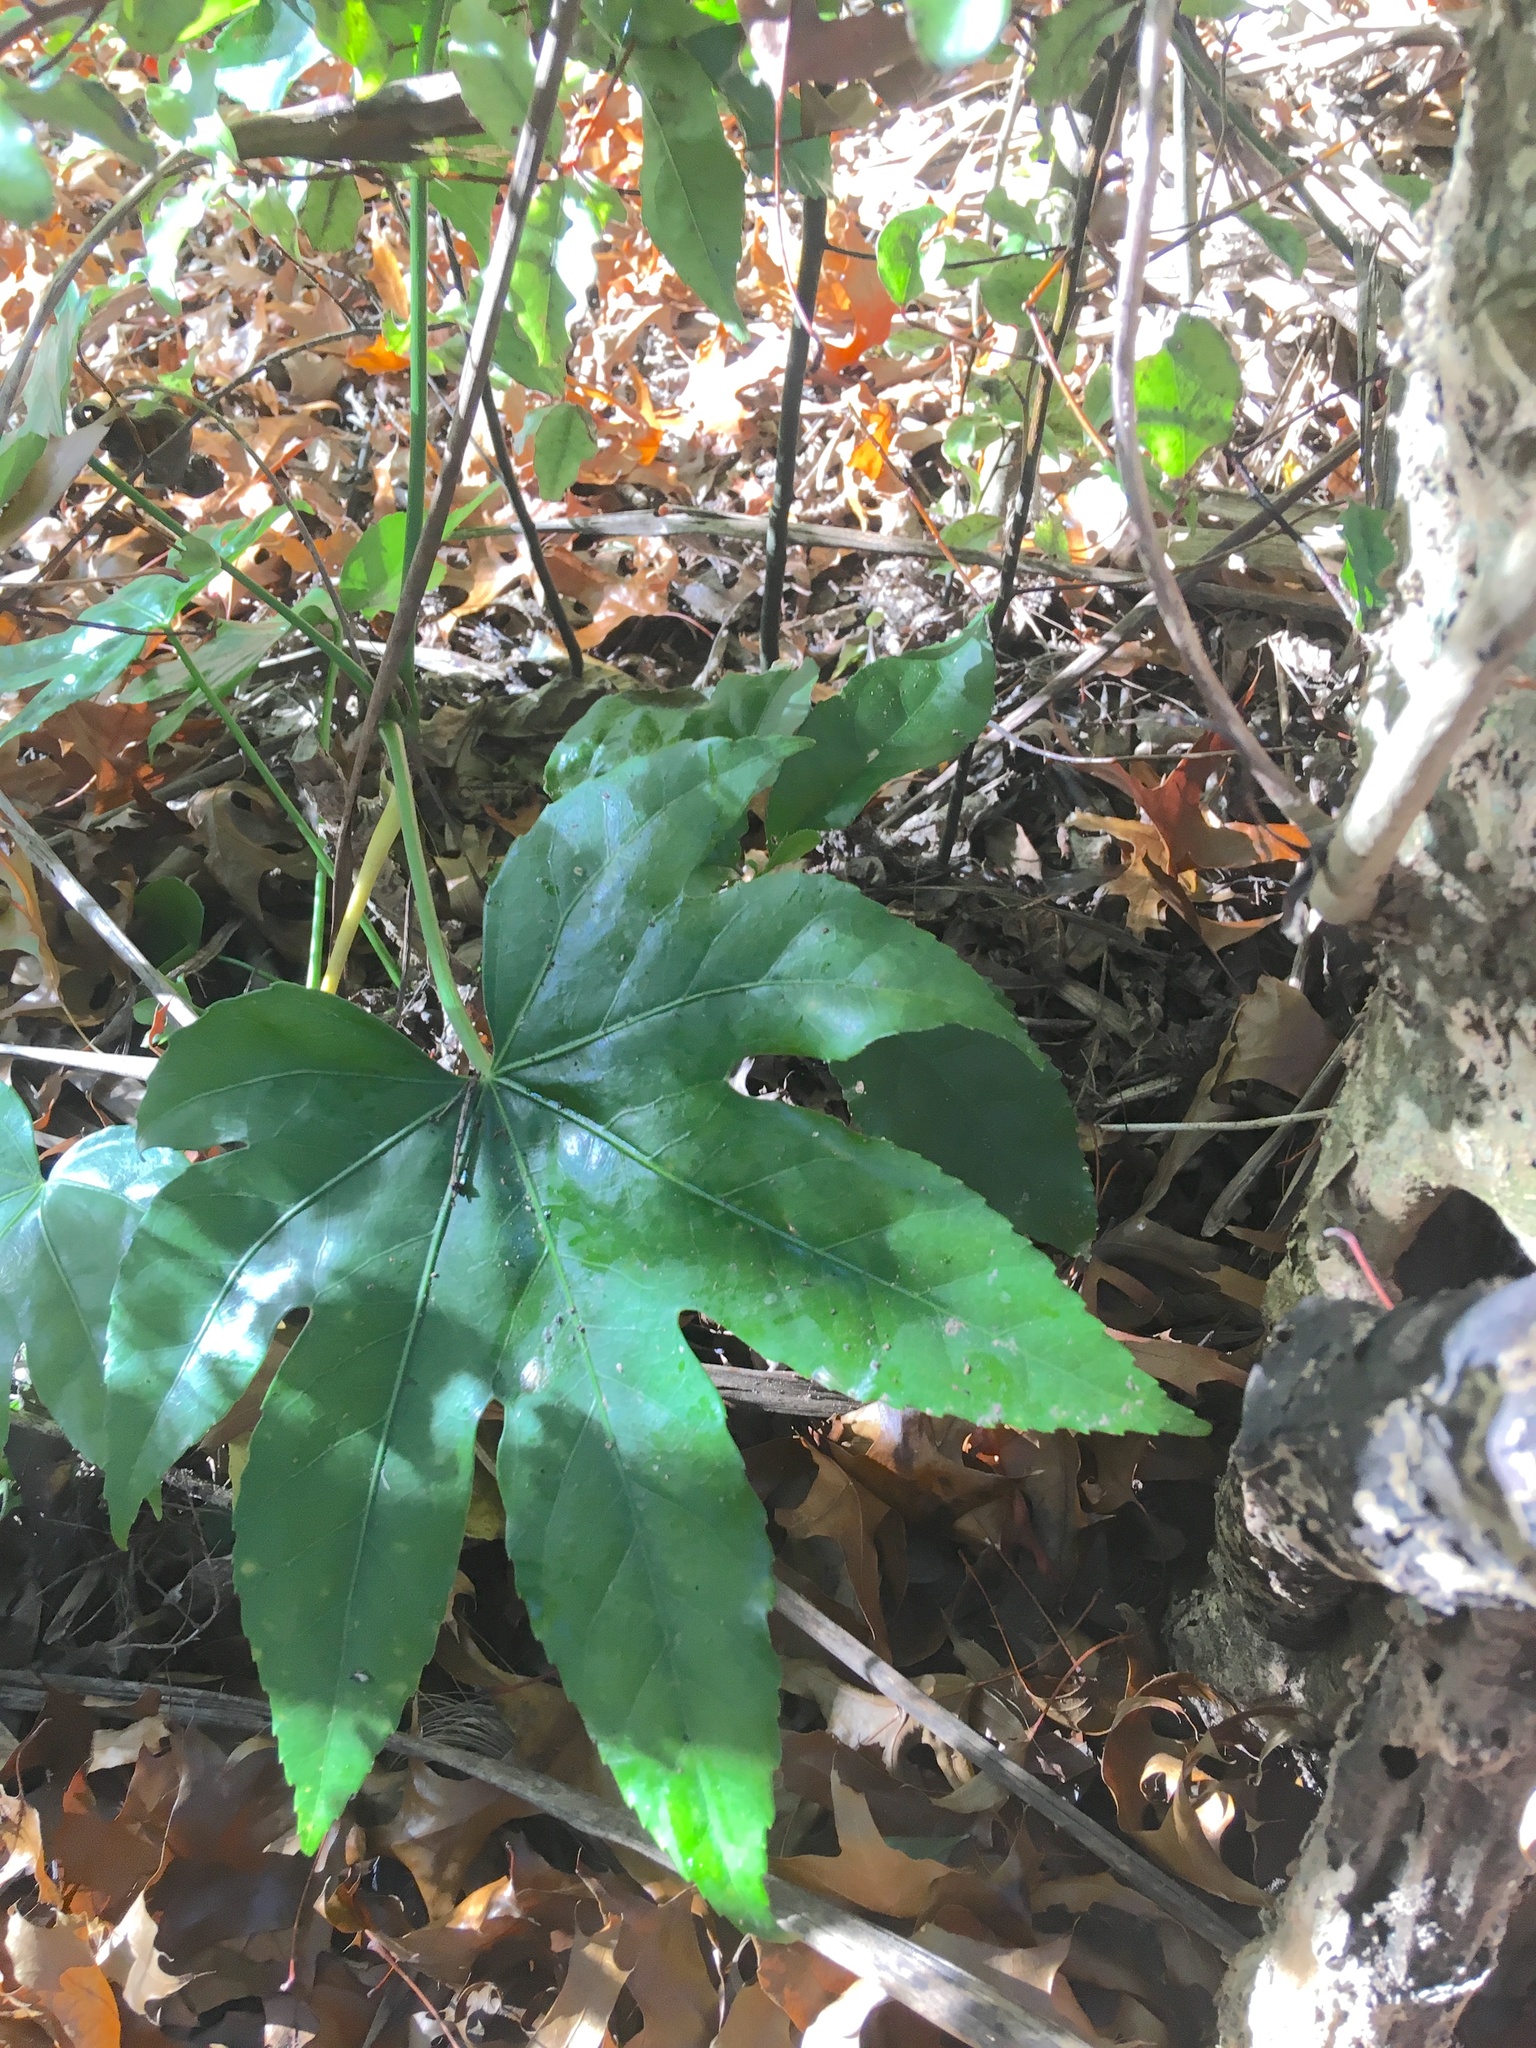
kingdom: Plantae
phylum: Tracheophyta
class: Magnoliopsida
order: Apiales
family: Araliaceae
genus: Fatsia
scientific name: Fatsia japonica
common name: Fatsia
